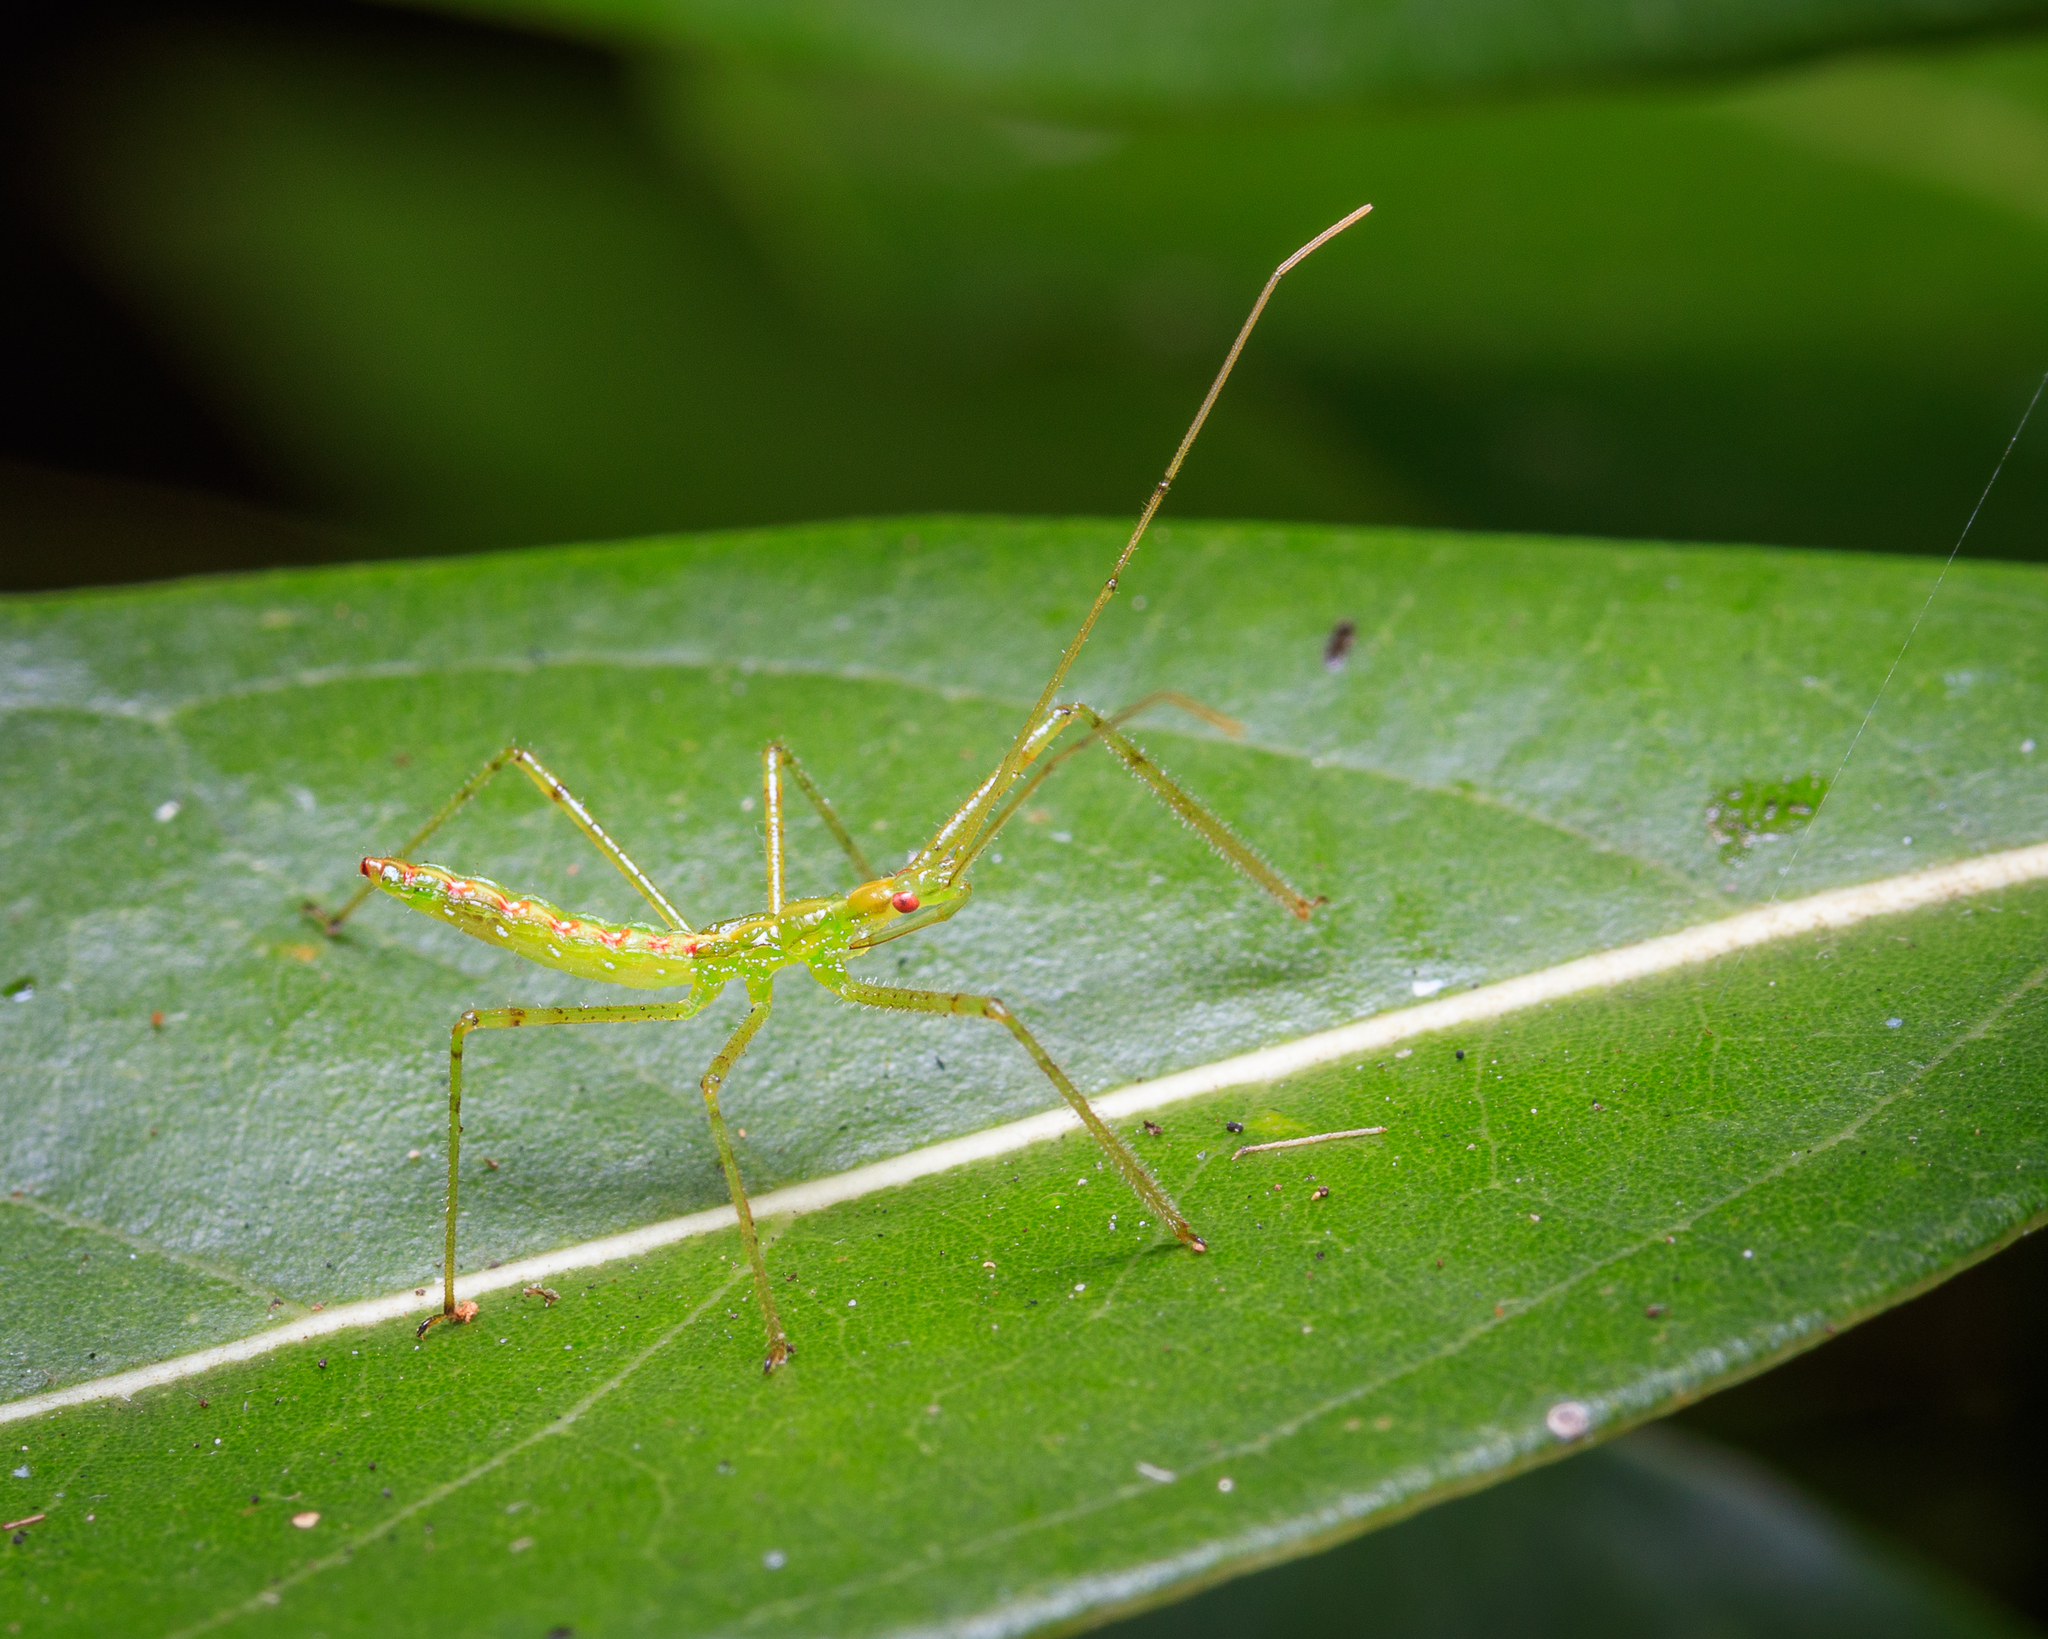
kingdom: Animalia
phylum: Arthropoda
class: Insecta
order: Hemiptera
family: Reduviidae
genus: Zelus
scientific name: Zelus luridus
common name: Pale green assassin bug
